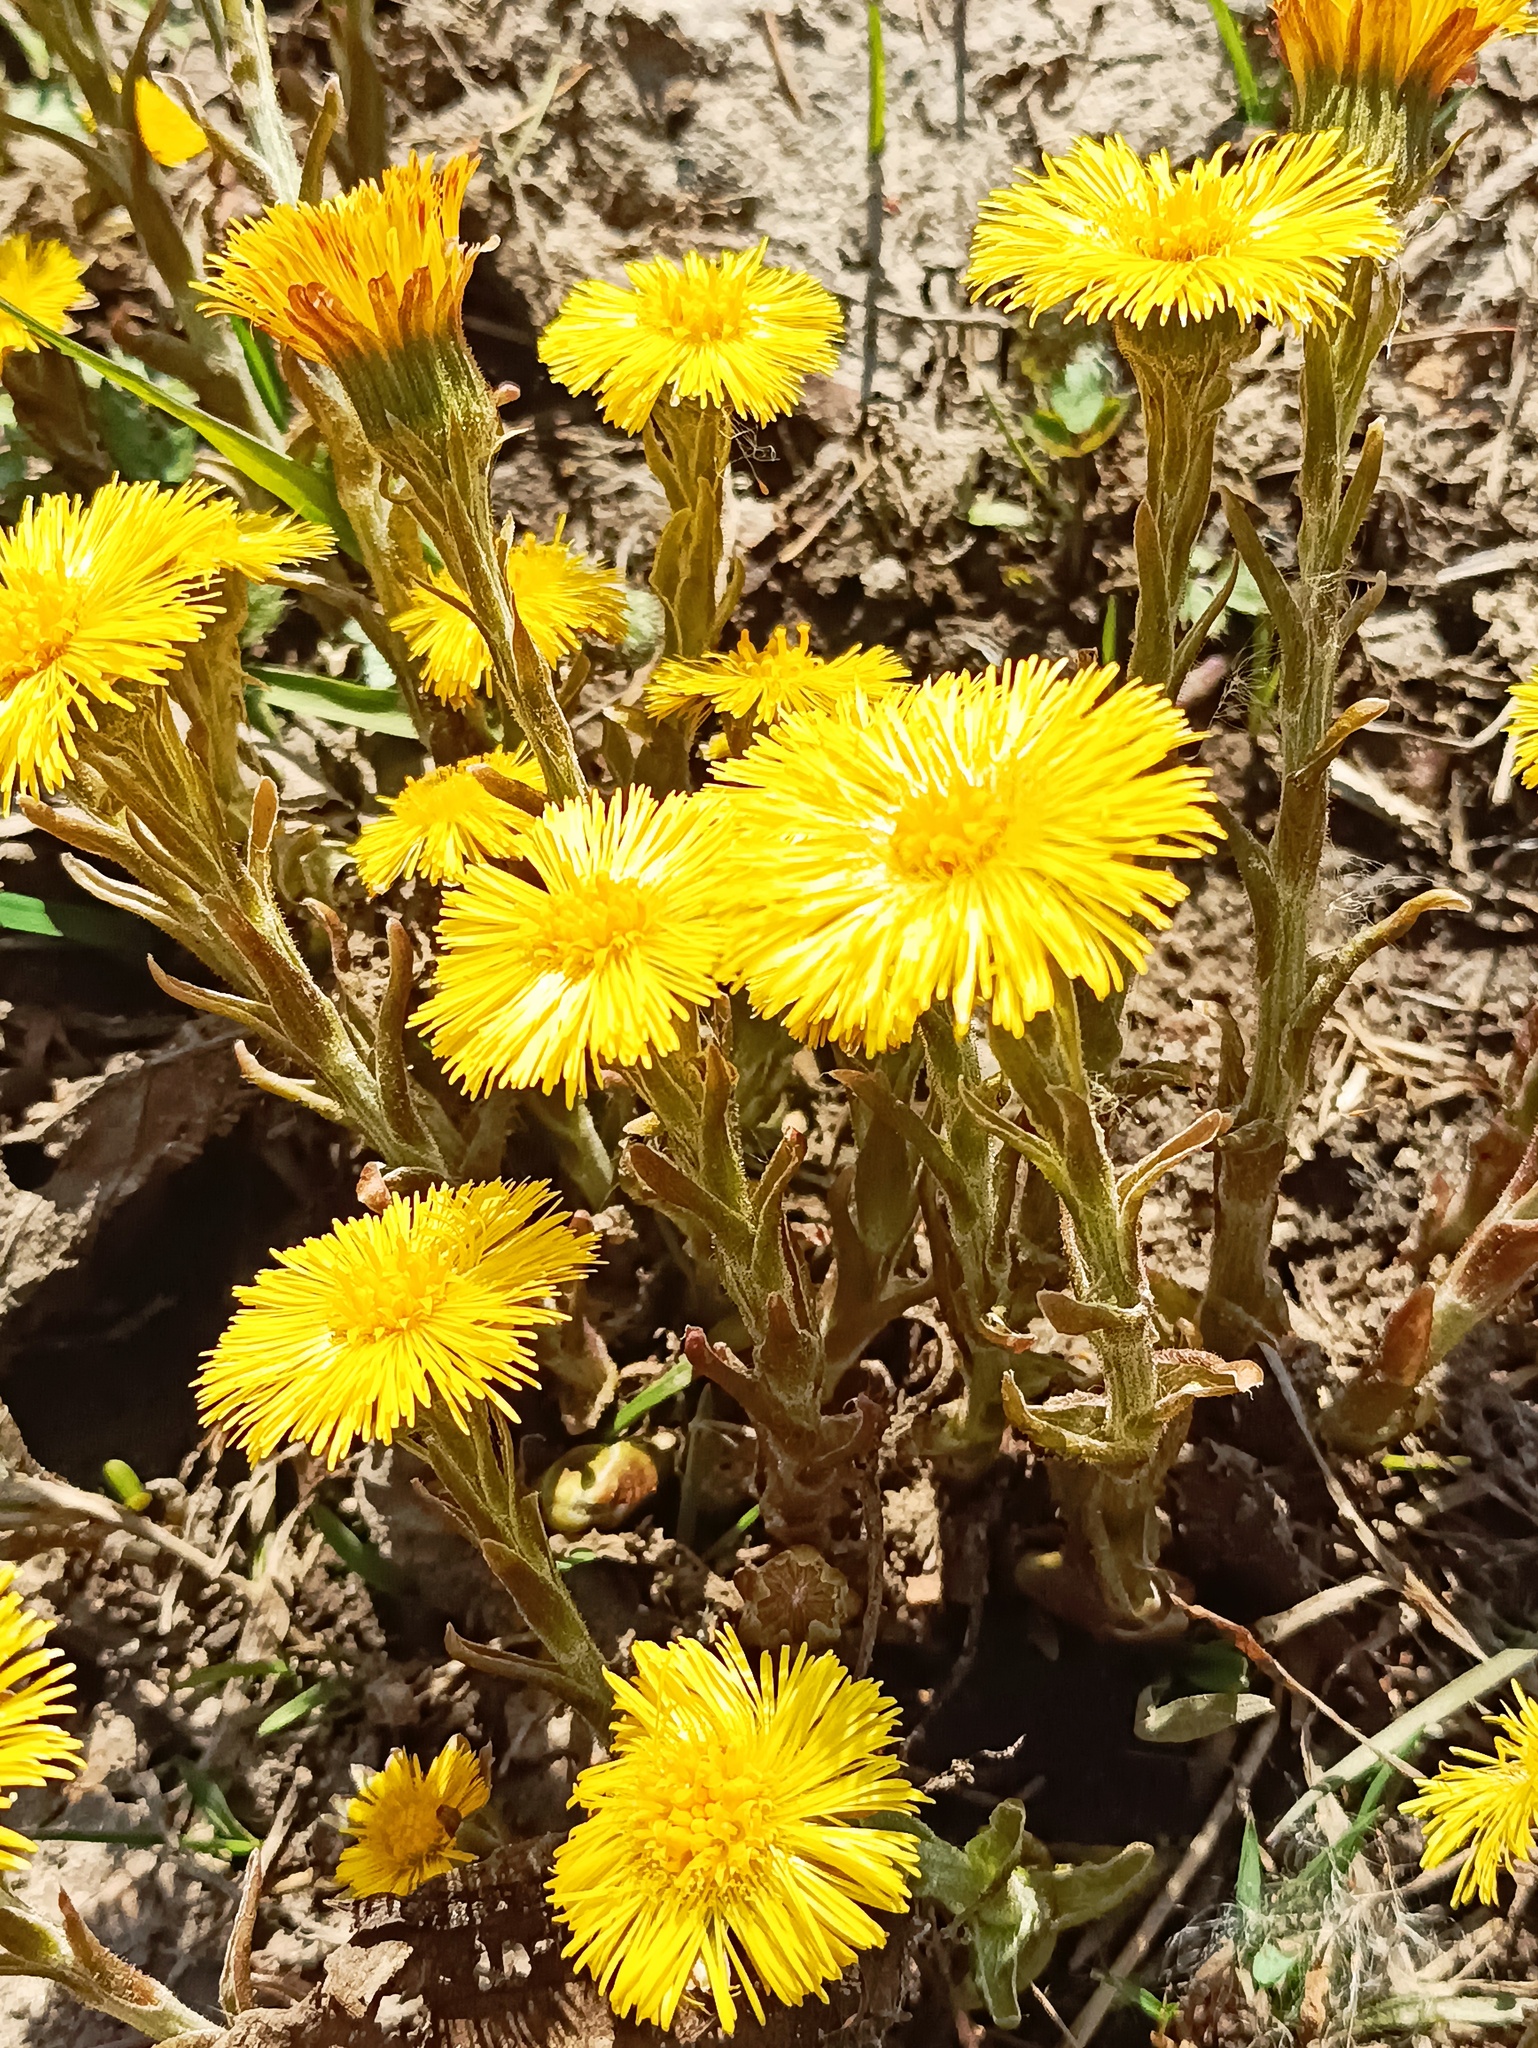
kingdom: Plantae
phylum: Tracheophyta
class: Magnoliopsida
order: Asterales
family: Asteraceae
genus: Tussilago
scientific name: Tussilago farfara
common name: Coltsfoot
